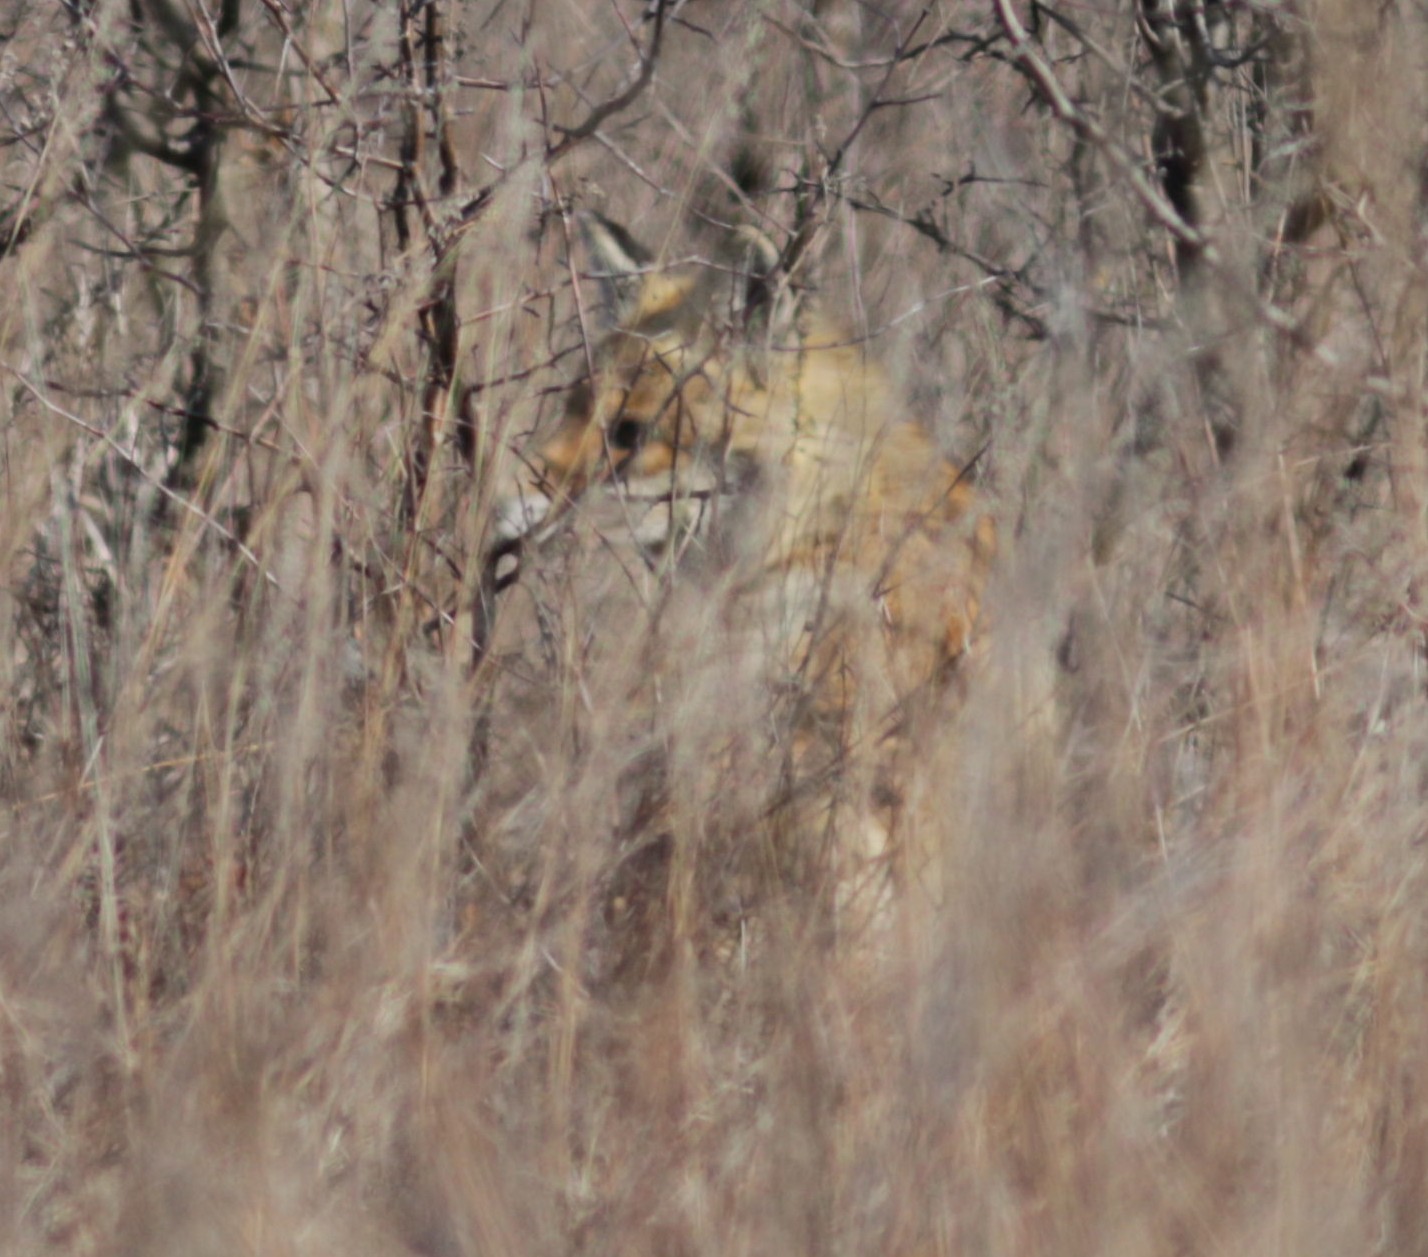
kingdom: Animalia
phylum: Chordata
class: Mammalia
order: Carnivora
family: Canidae
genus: Vulpes
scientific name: Vulpes vulpes
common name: Red fox
